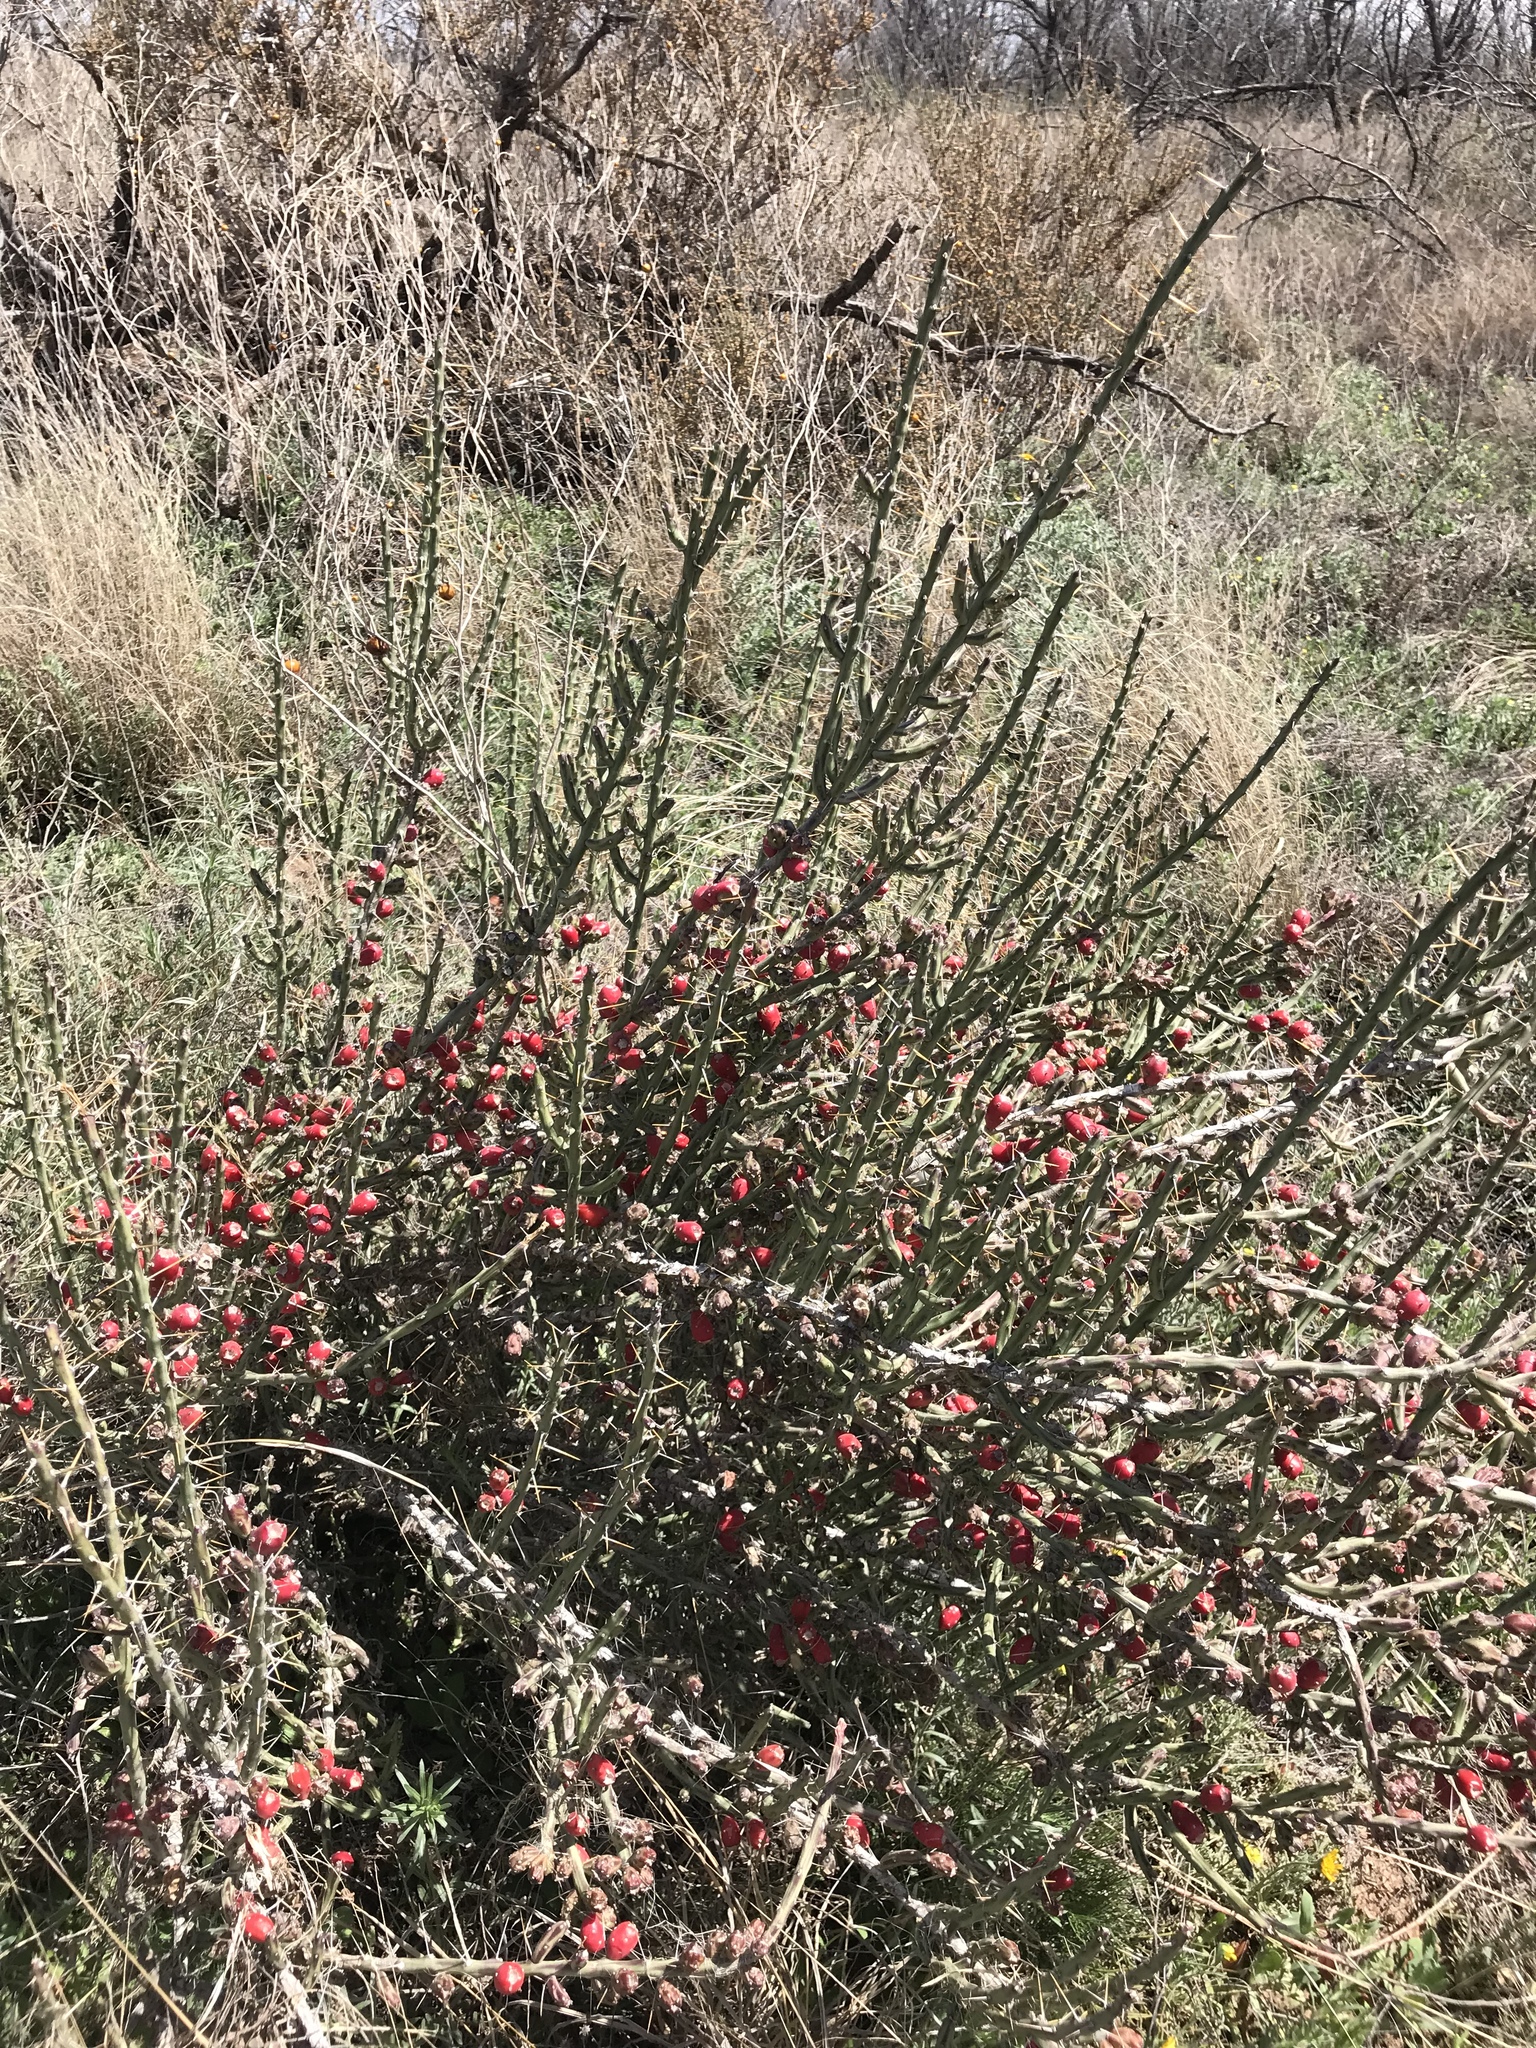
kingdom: Plantae
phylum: Tracheophyta
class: Magnoliopsida
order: Caryophyllales
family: Cactaceae
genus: Cylindropuntia
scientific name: Cylindropuntia leptocaulis
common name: Christmas cactus
